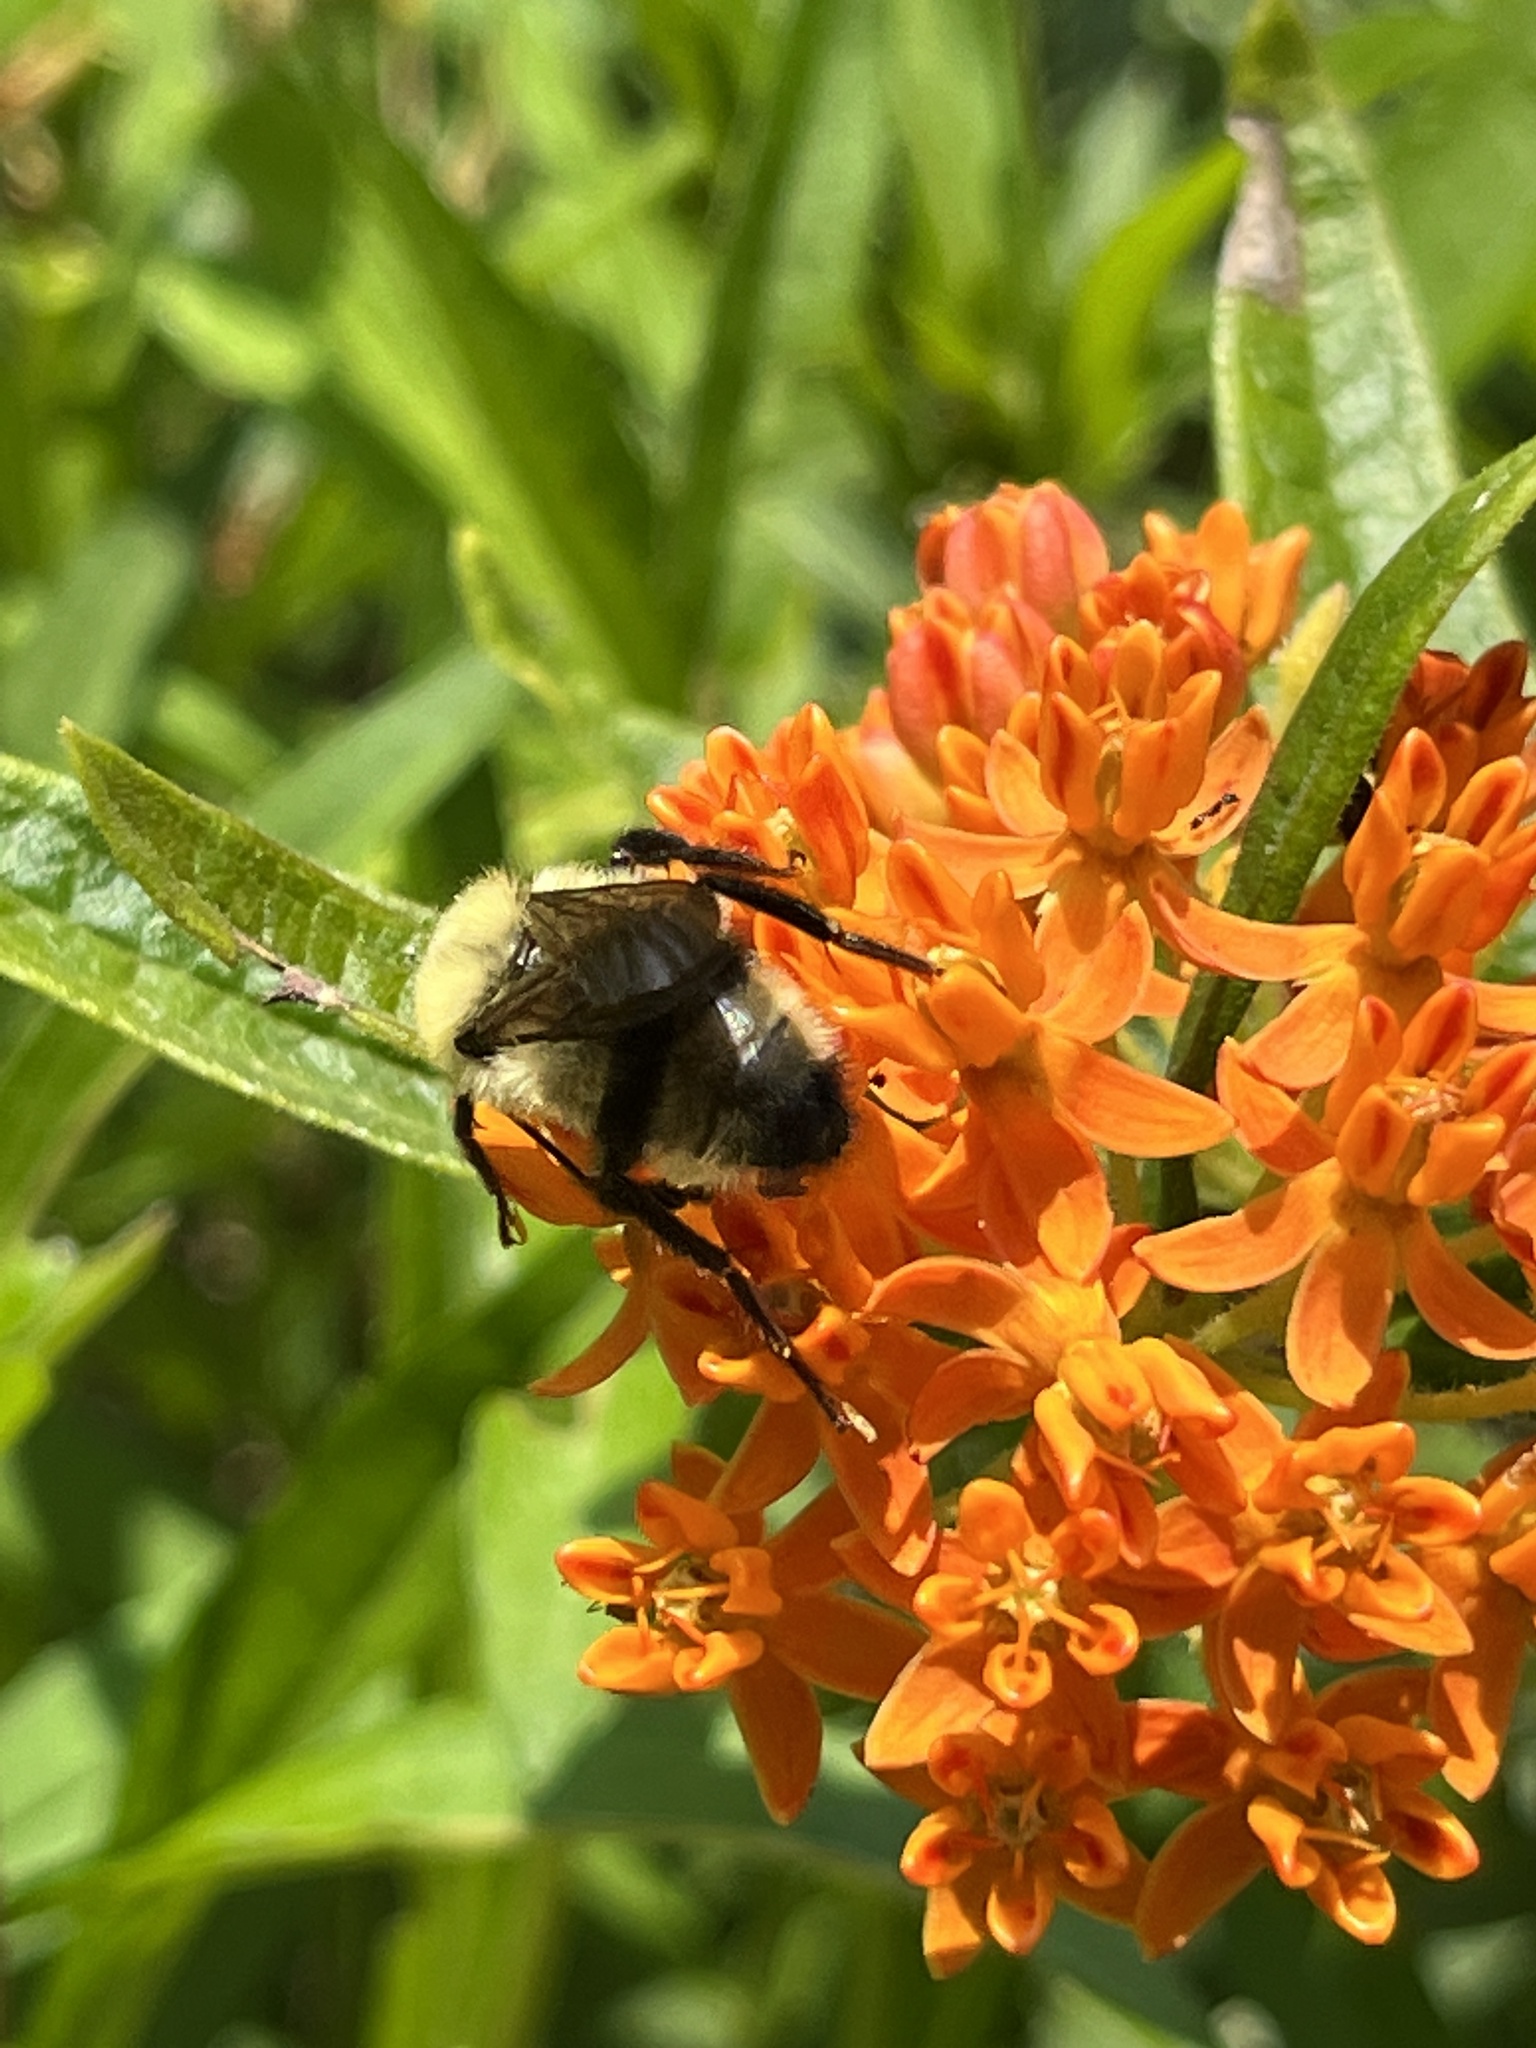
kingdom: Animalia
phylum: Arthropoda
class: Insecta
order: Hymenoptera
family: Apidae
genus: Bombus
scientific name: Bombus bimaculatus
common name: Two-spotted bumble bee
